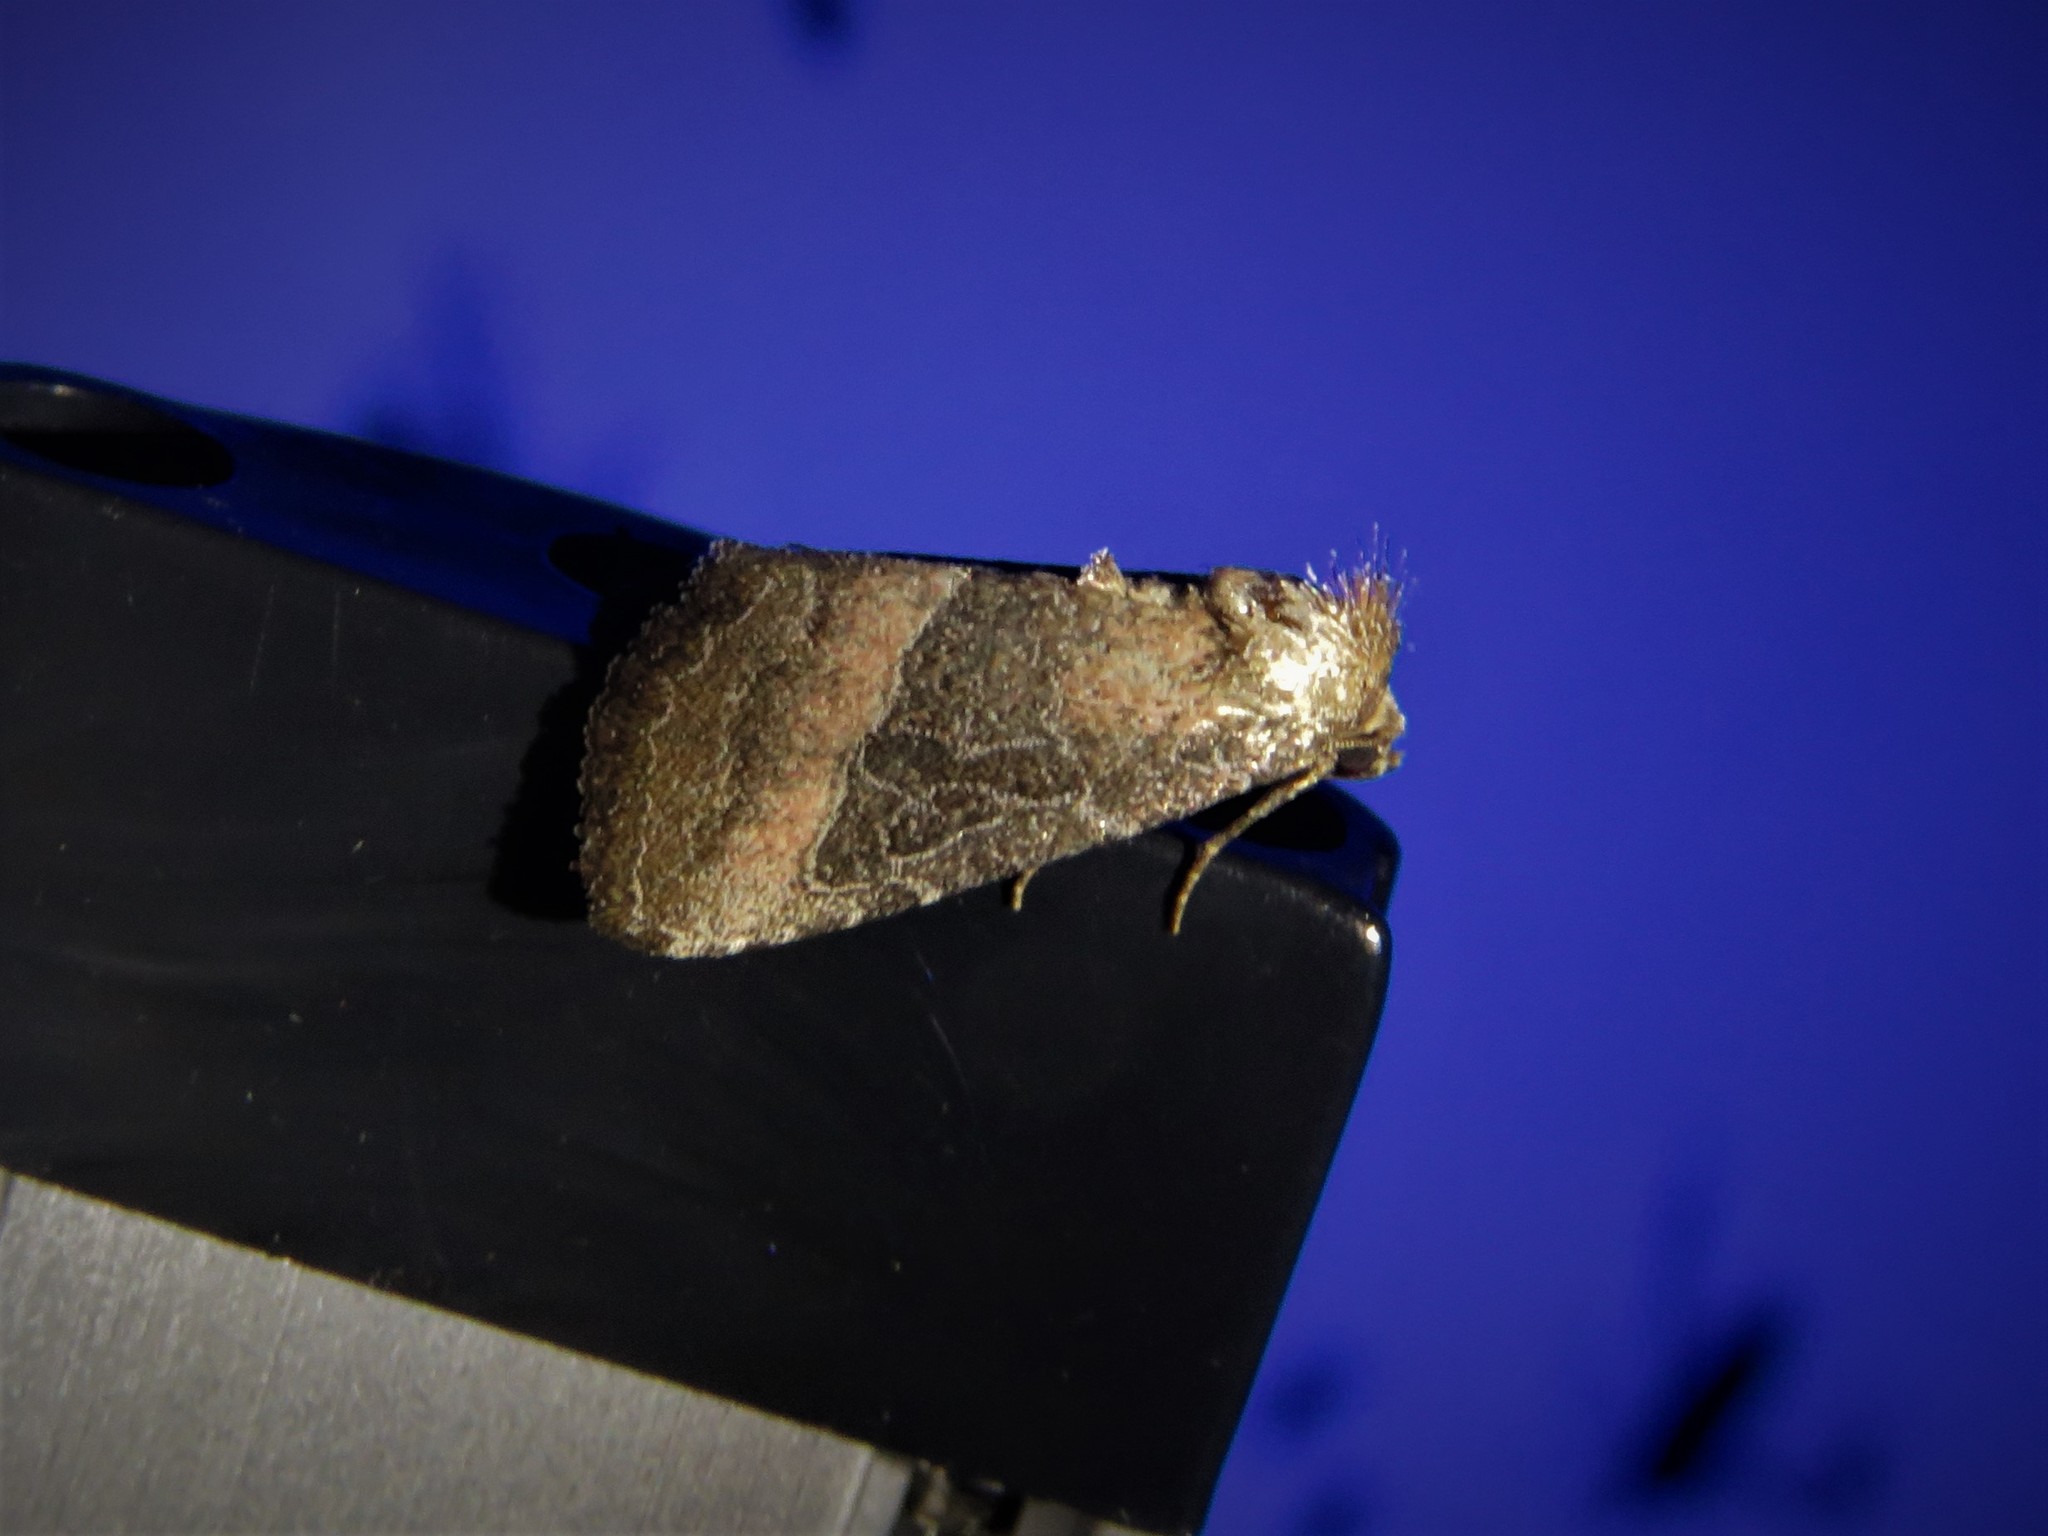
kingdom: Animalia
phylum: Arthropoda
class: Insecta
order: Lepidoptera
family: Noctuidae
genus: Ogdoconta
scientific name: Ogdoconta cinereola
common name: Common pinkband
